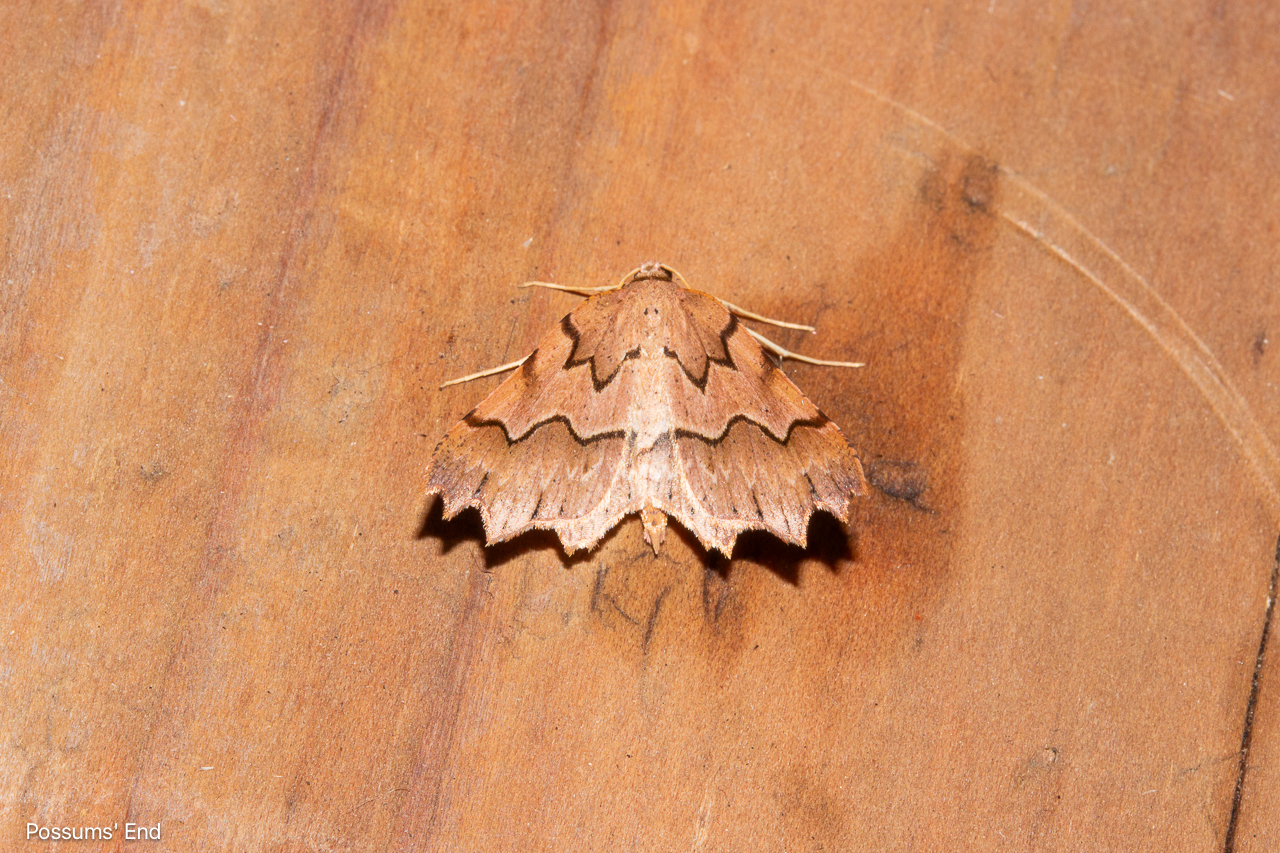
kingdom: Animalia
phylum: Arthropoda
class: Insecta
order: Lepidoptera
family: Geometridae
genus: Ischalis
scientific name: Ischalis fortinata
